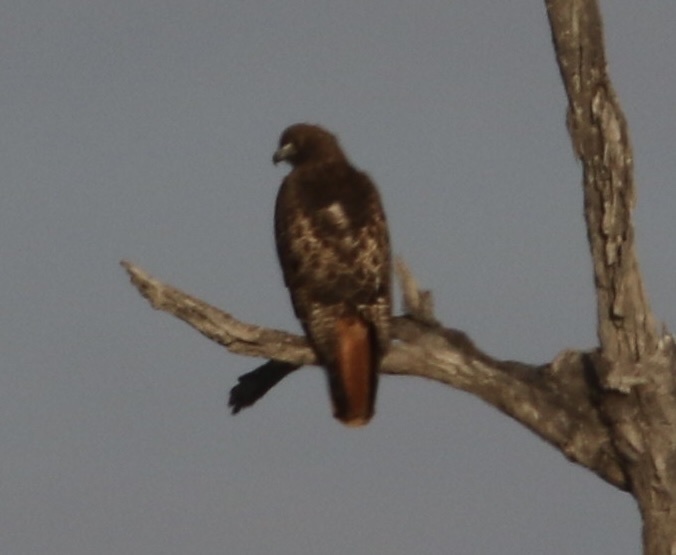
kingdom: Animalia
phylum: Chordata
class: Aves
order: Accipitriformes
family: Accipitridae
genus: Buteo
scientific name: Buteo jamaicensis
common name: Red-tailed hawk
